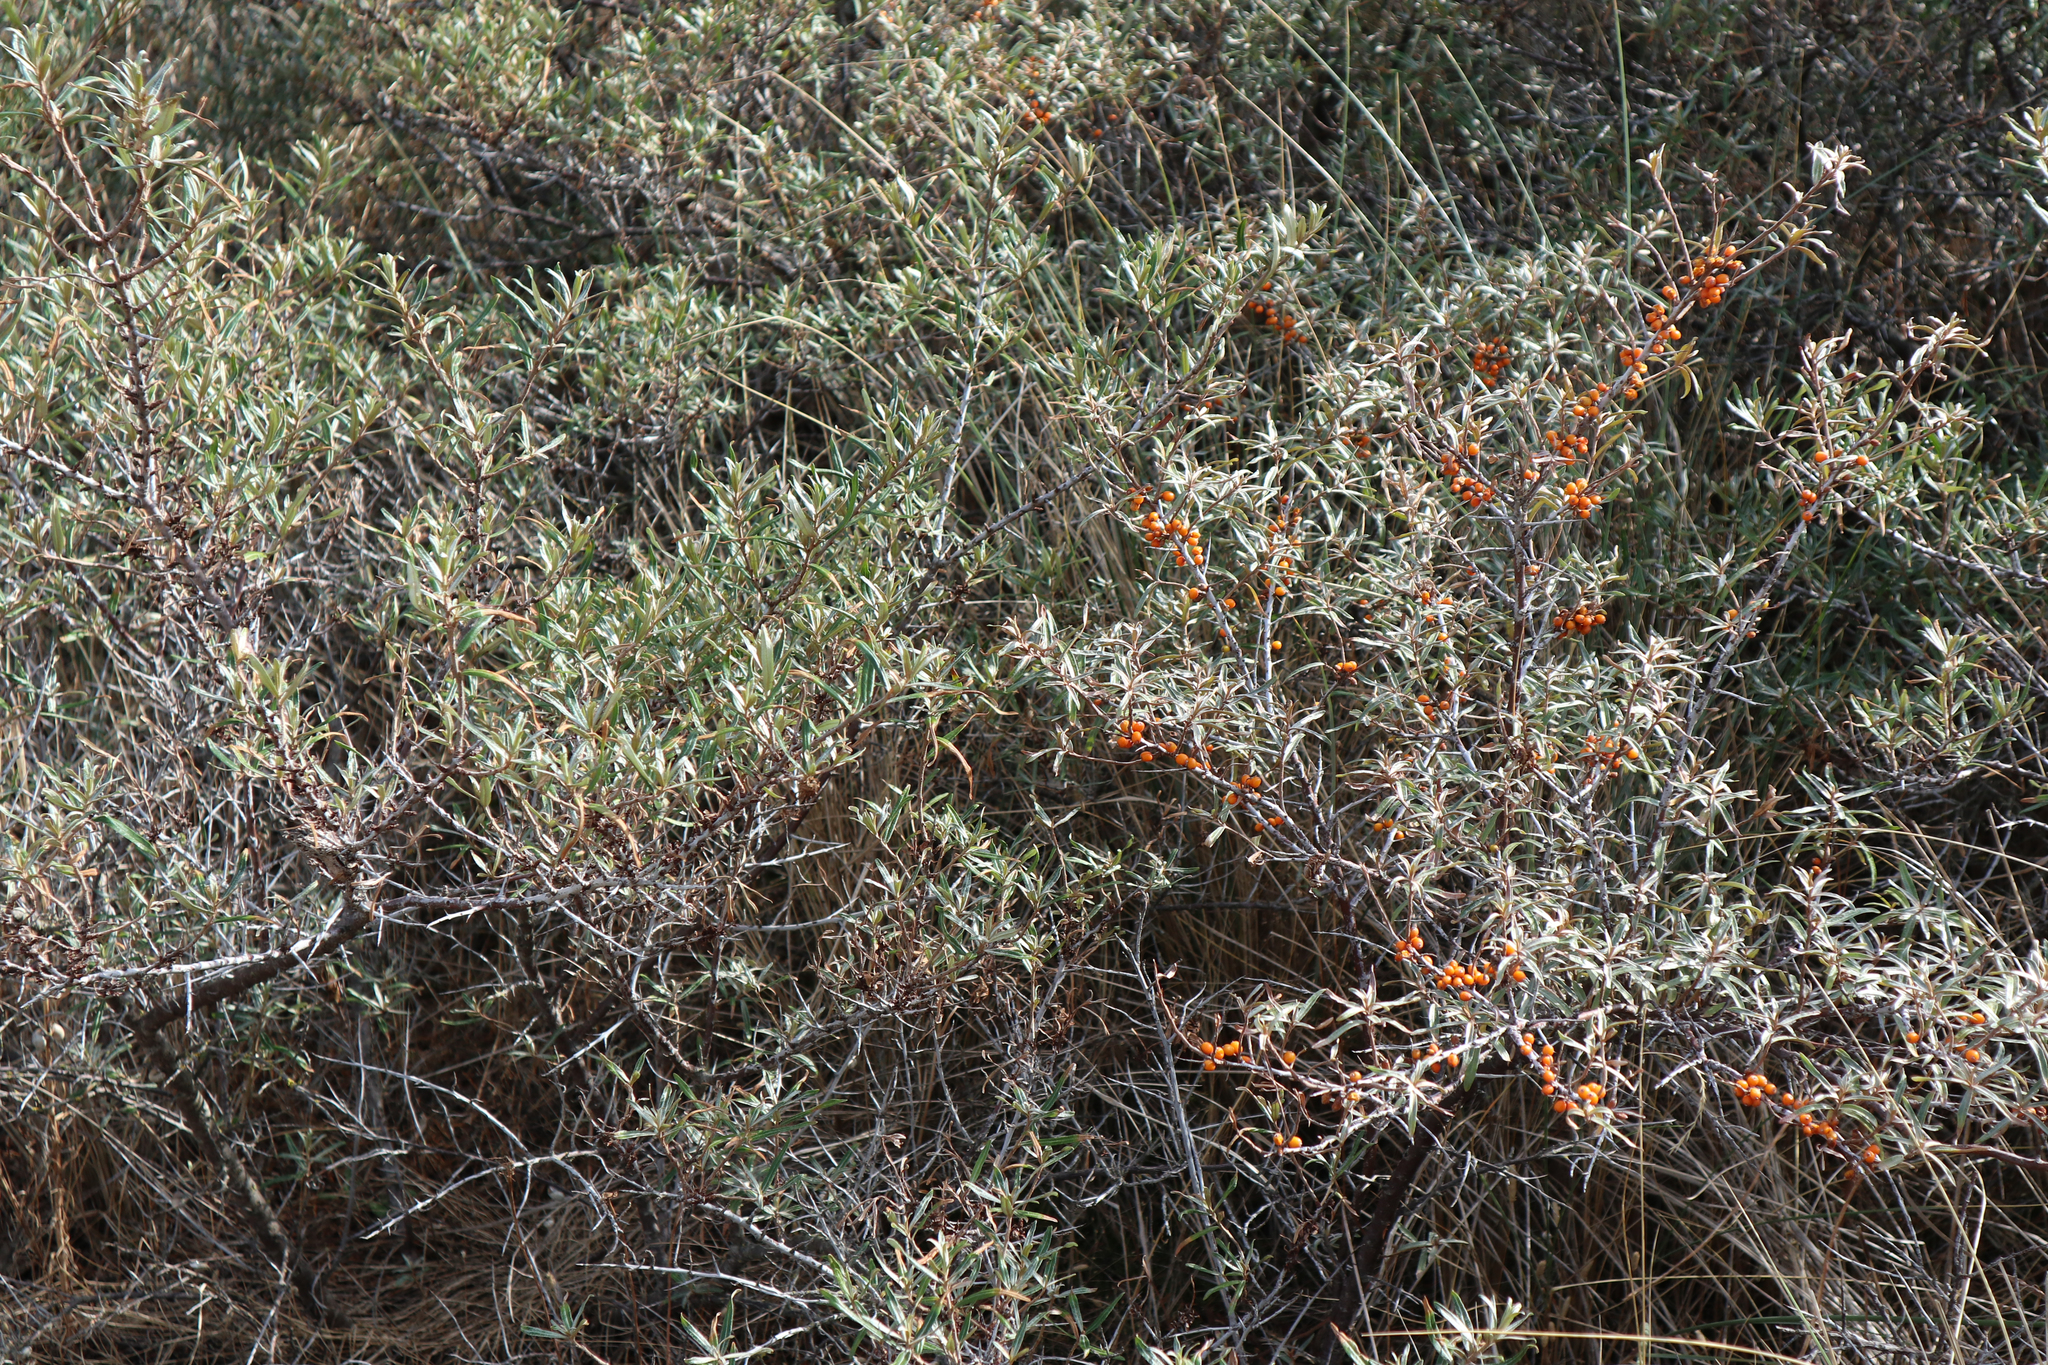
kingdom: Plantae
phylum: Tracheophyta
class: Magnoliopsida
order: Rosales
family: Elaeagnaceae
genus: Hippophae
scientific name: Hippophae rhamnoides
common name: Sea-buckthorn
